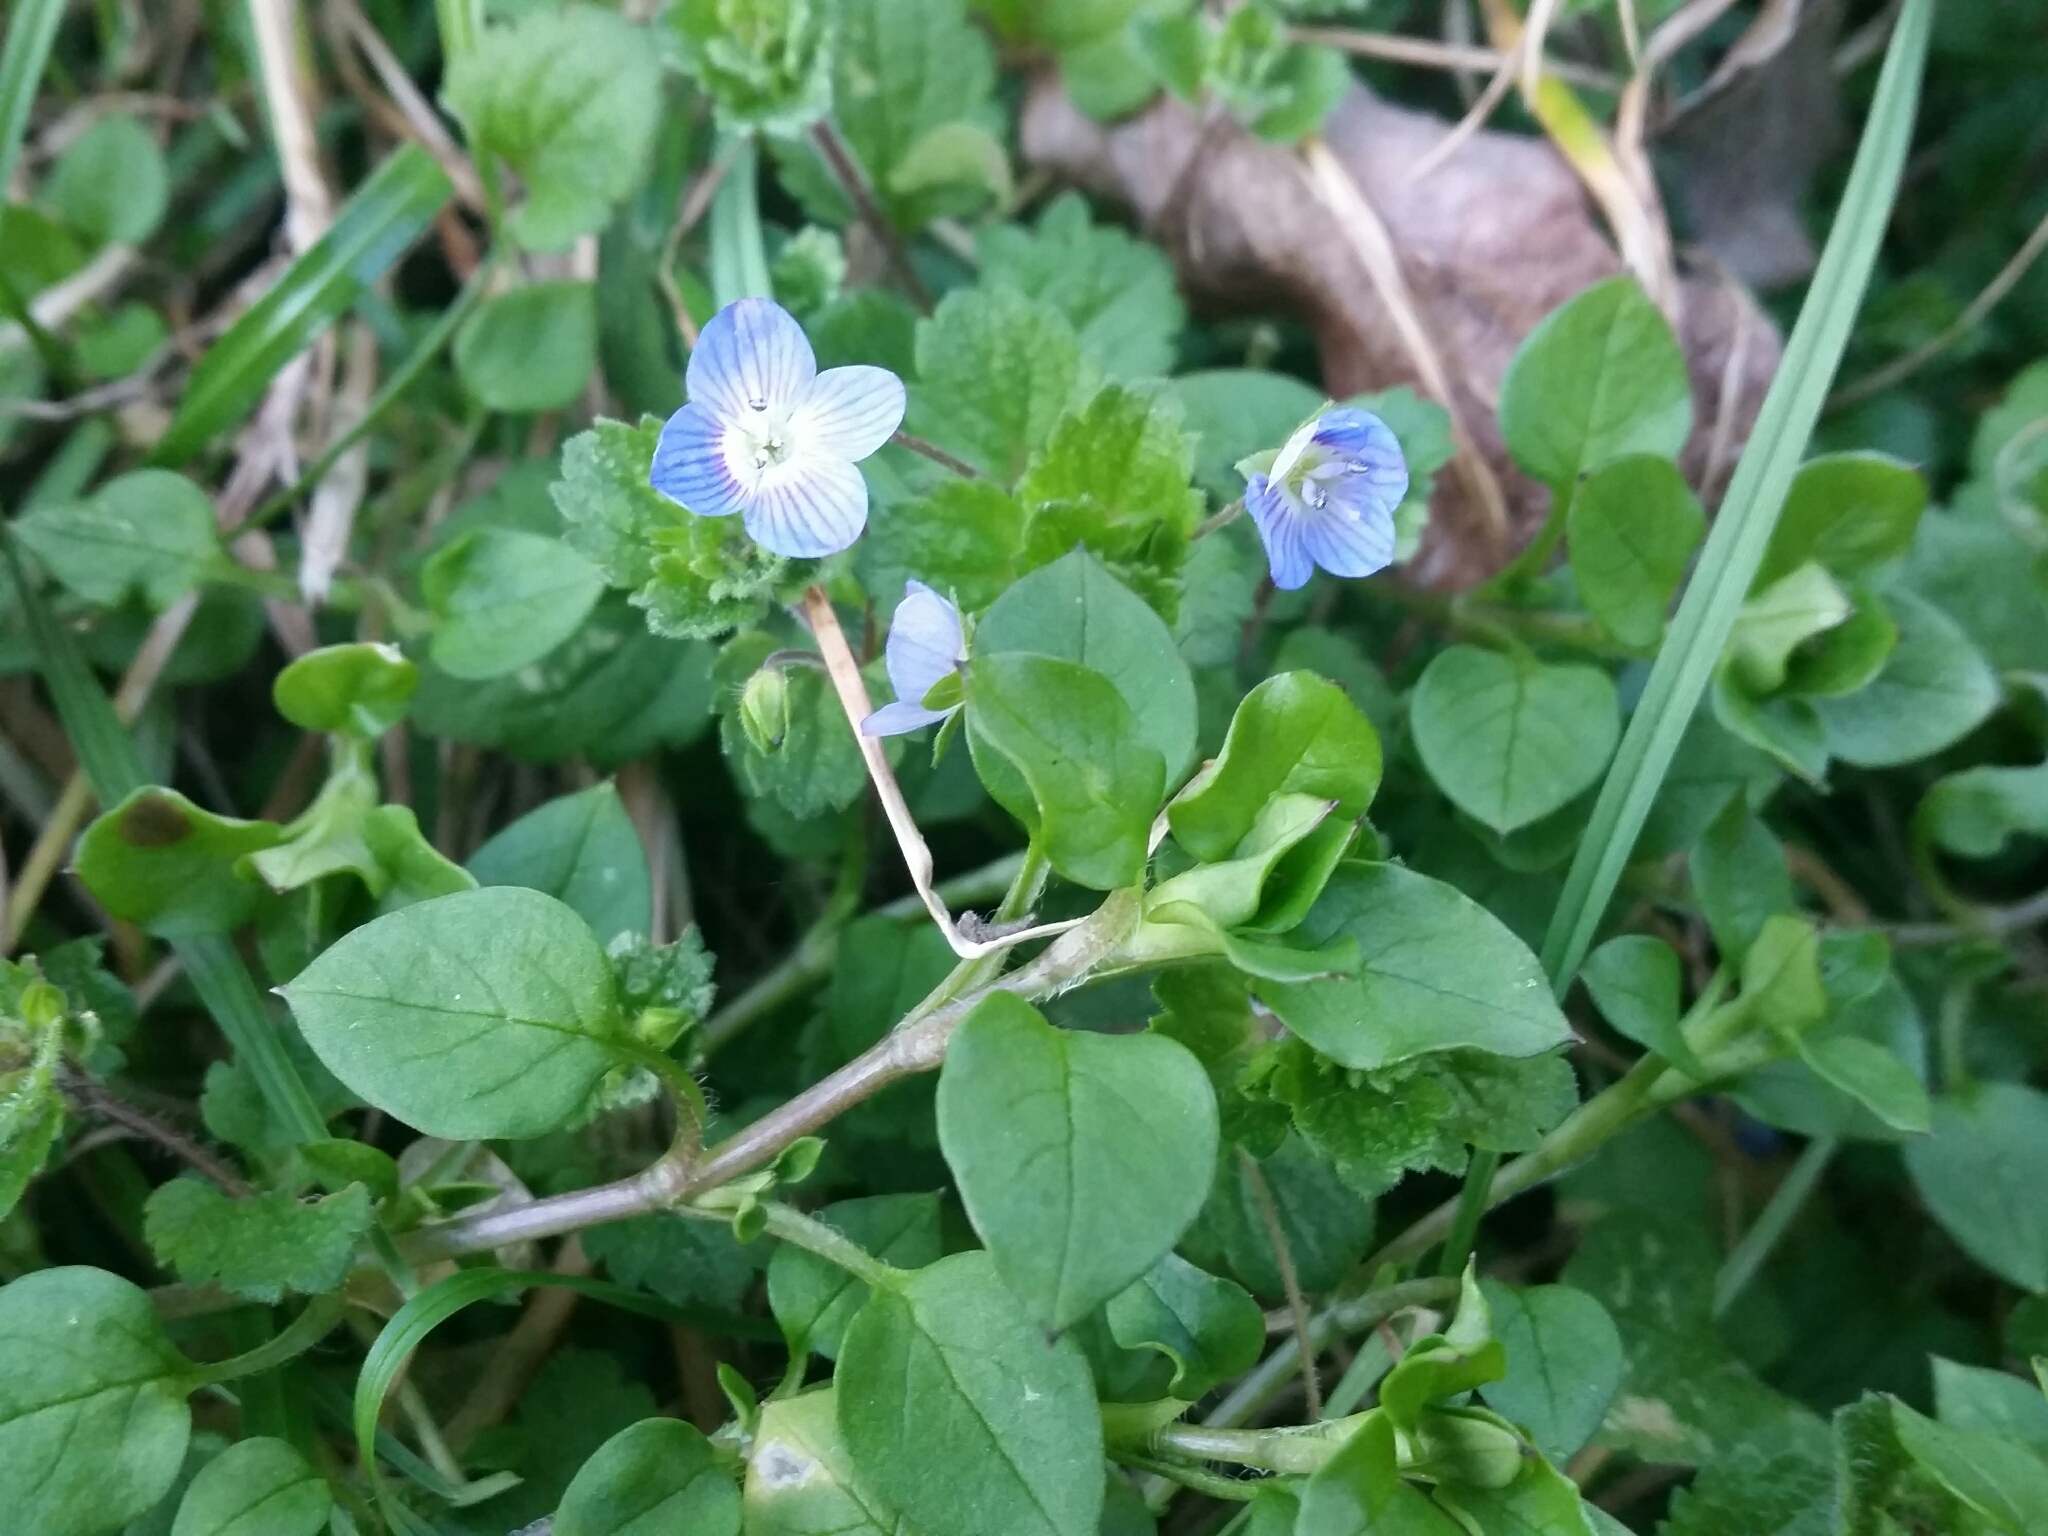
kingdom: Plantae
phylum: Tracheophyta
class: Magnoliopsida
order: Lamiales
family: Plantaginaceae
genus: Veronica
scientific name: Veronica persica
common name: Common field-speedwell
